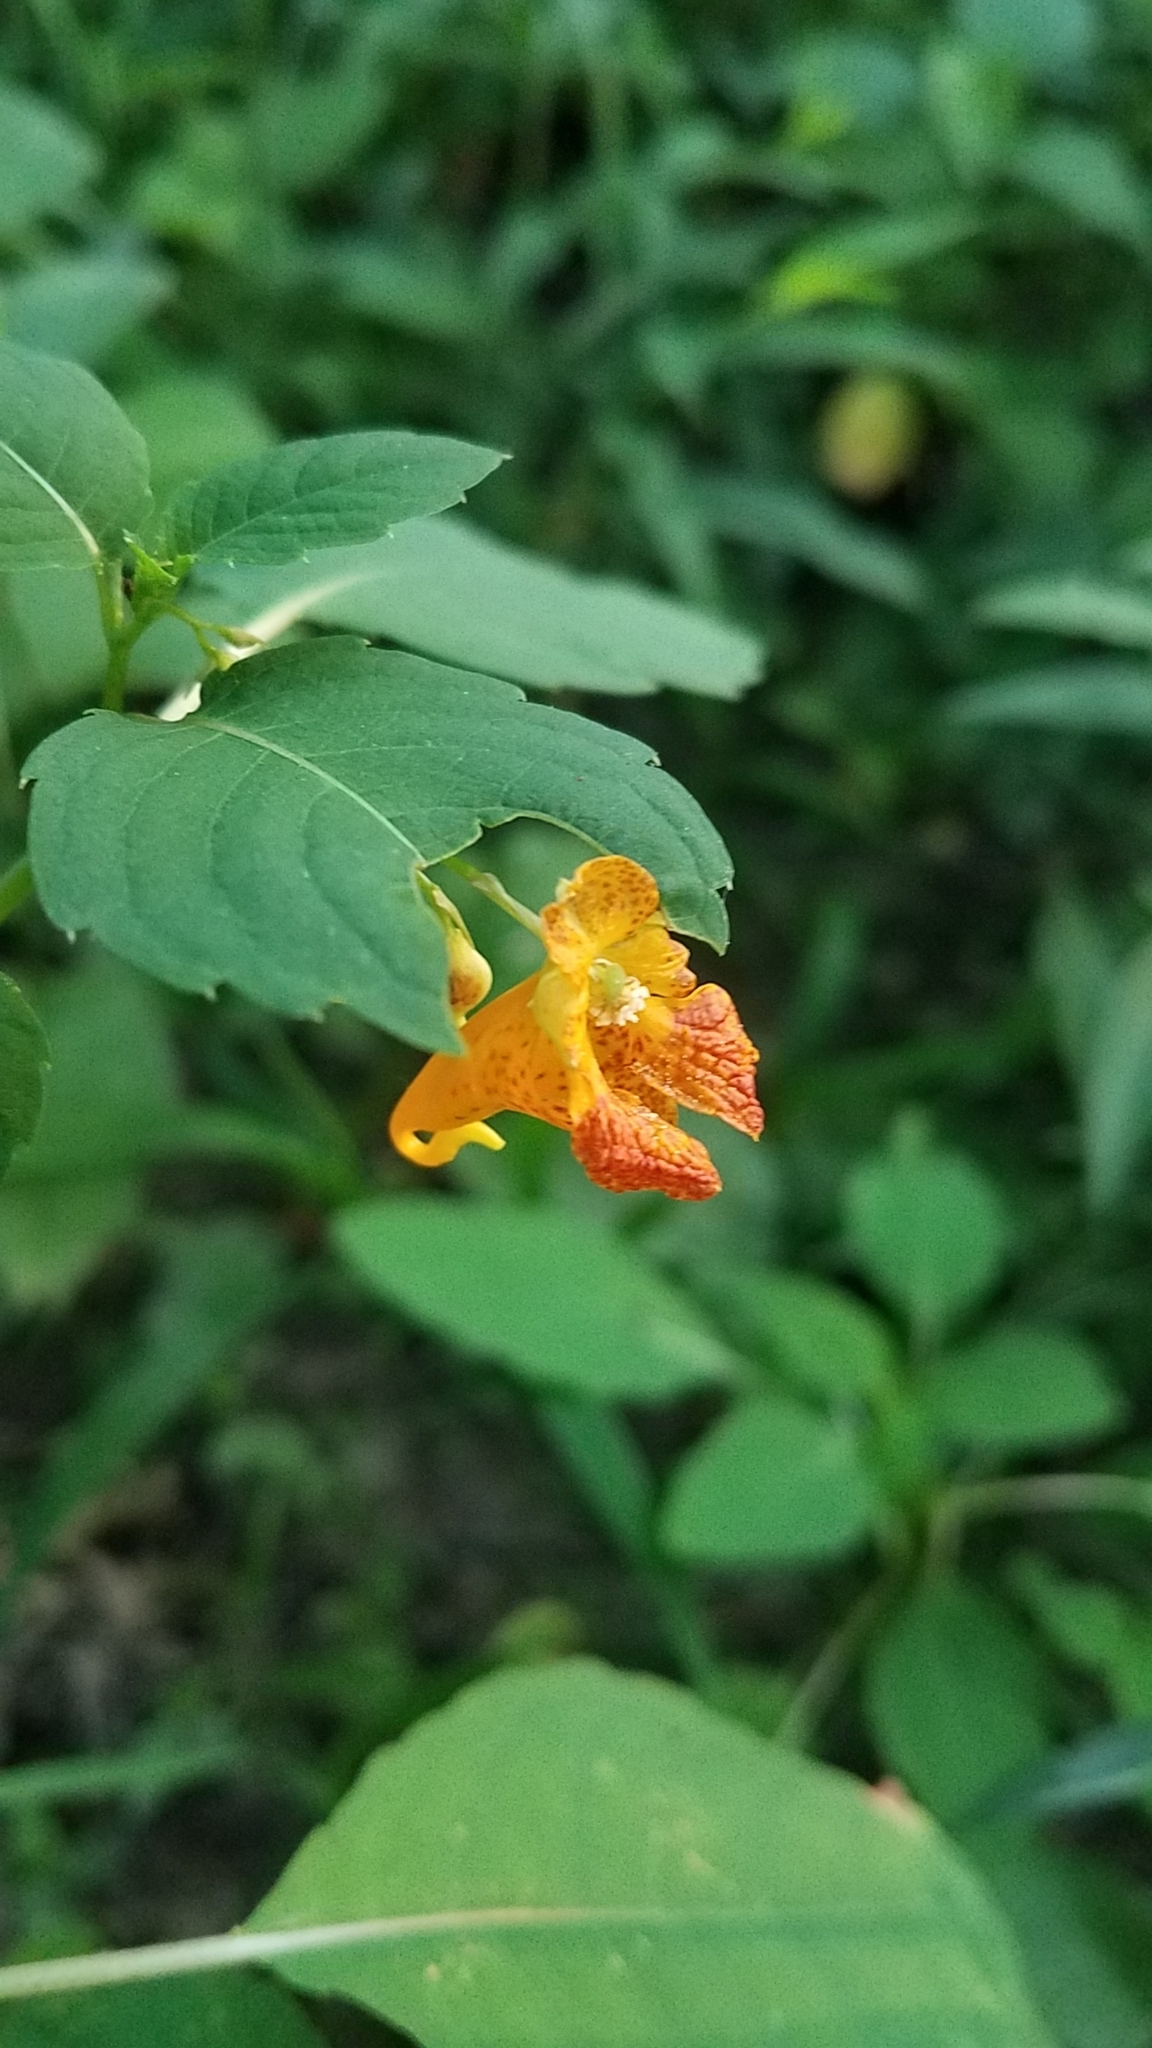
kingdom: Plantae
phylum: Tracheophyta
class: Magnoliopsida
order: Ericales
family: Balsaminaceae
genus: Impatiens
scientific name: Impatiens capensis
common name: Orange balsam
